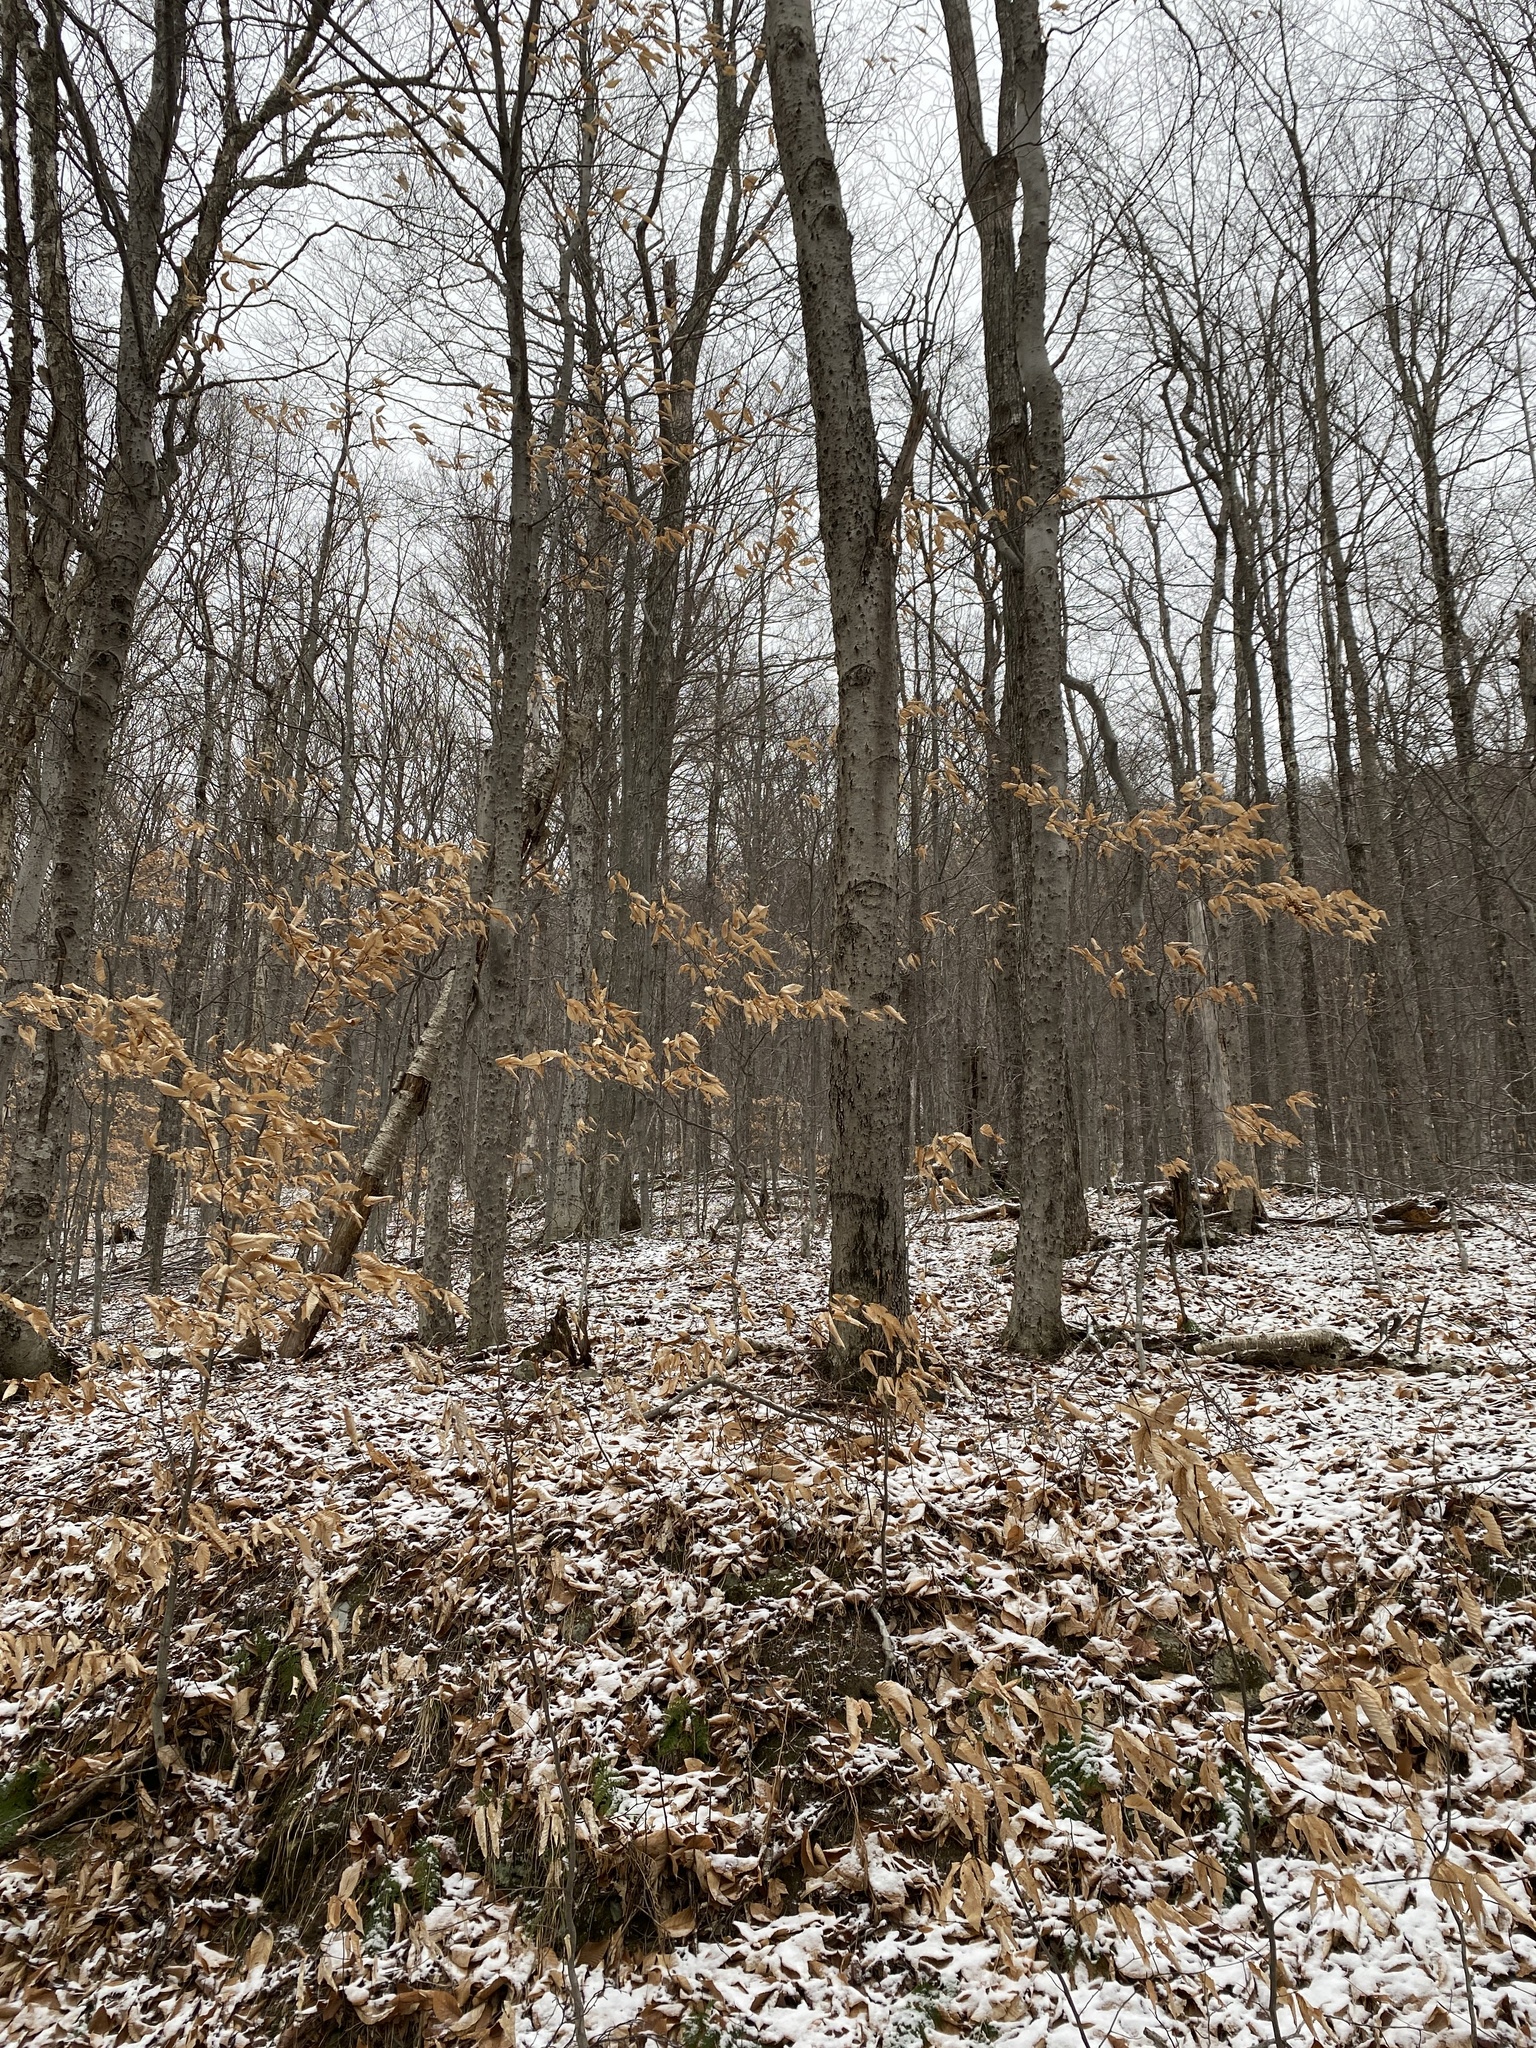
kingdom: Plantae
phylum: Tracheophyta
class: Magnoliopsida
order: Fagales
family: Fagaceae
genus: Fagus
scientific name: Fagus grandifolia
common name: American beech
